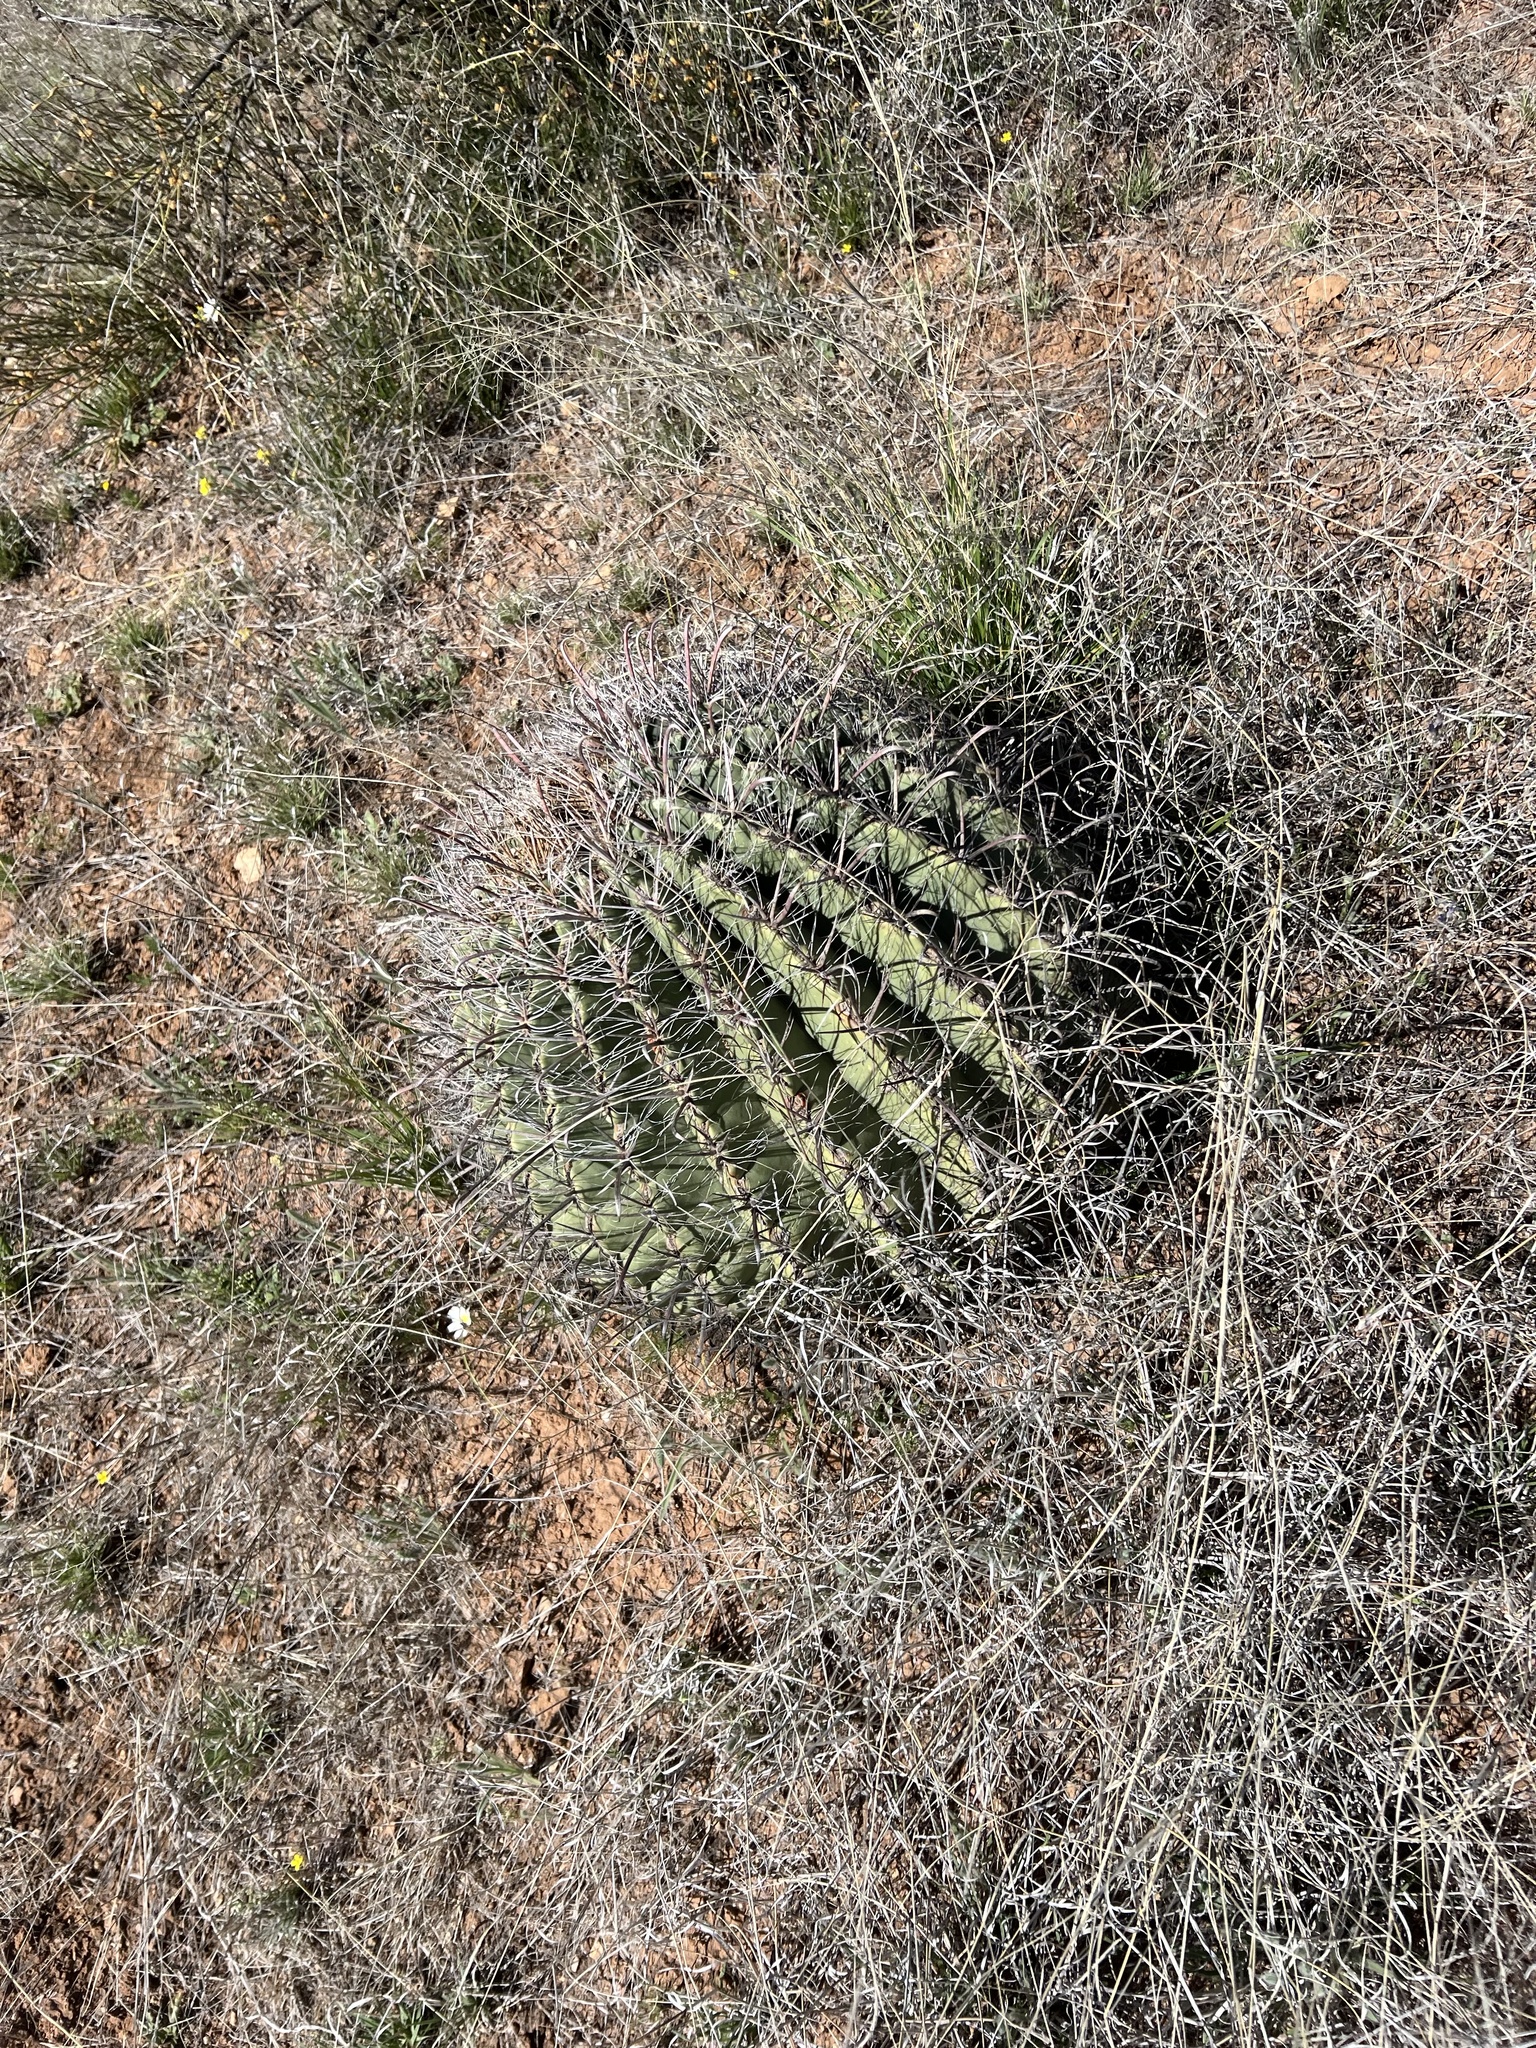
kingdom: Plantae
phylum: Tracheophyta
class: Magnoliopsida
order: Caryophyllales
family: Cactaceae
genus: Ferocactus
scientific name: Ferocactus wislizeni
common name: Candy barrel cactus
